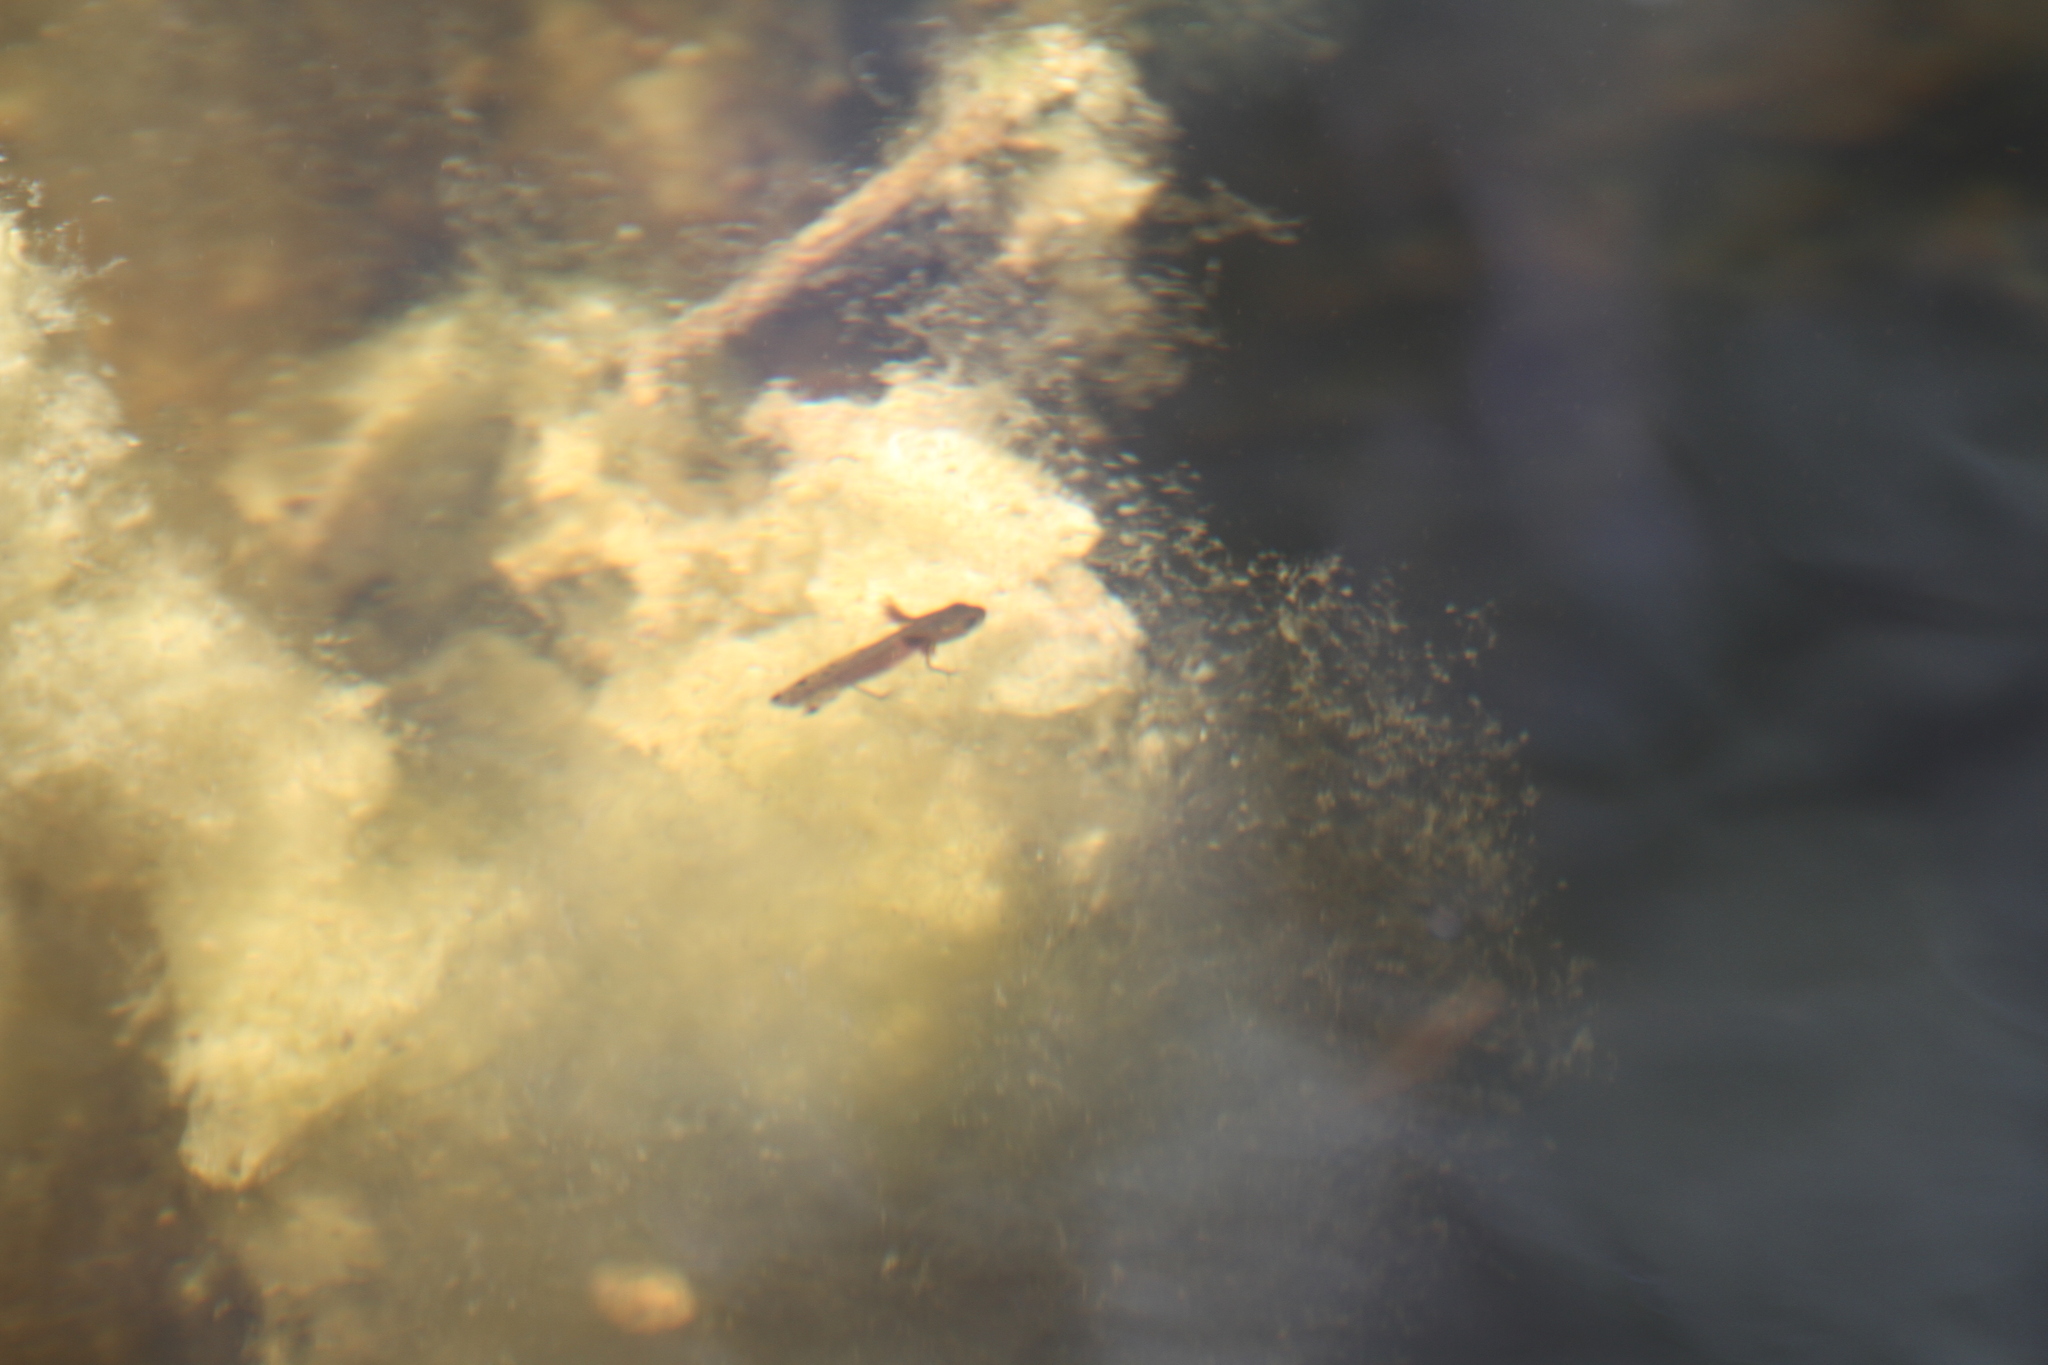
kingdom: Animalia
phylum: Chordata
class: Amphibia
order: Caudata
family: Salamandridae
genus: Triturus
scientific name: Triturus marmoratus
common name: Marbled newt
